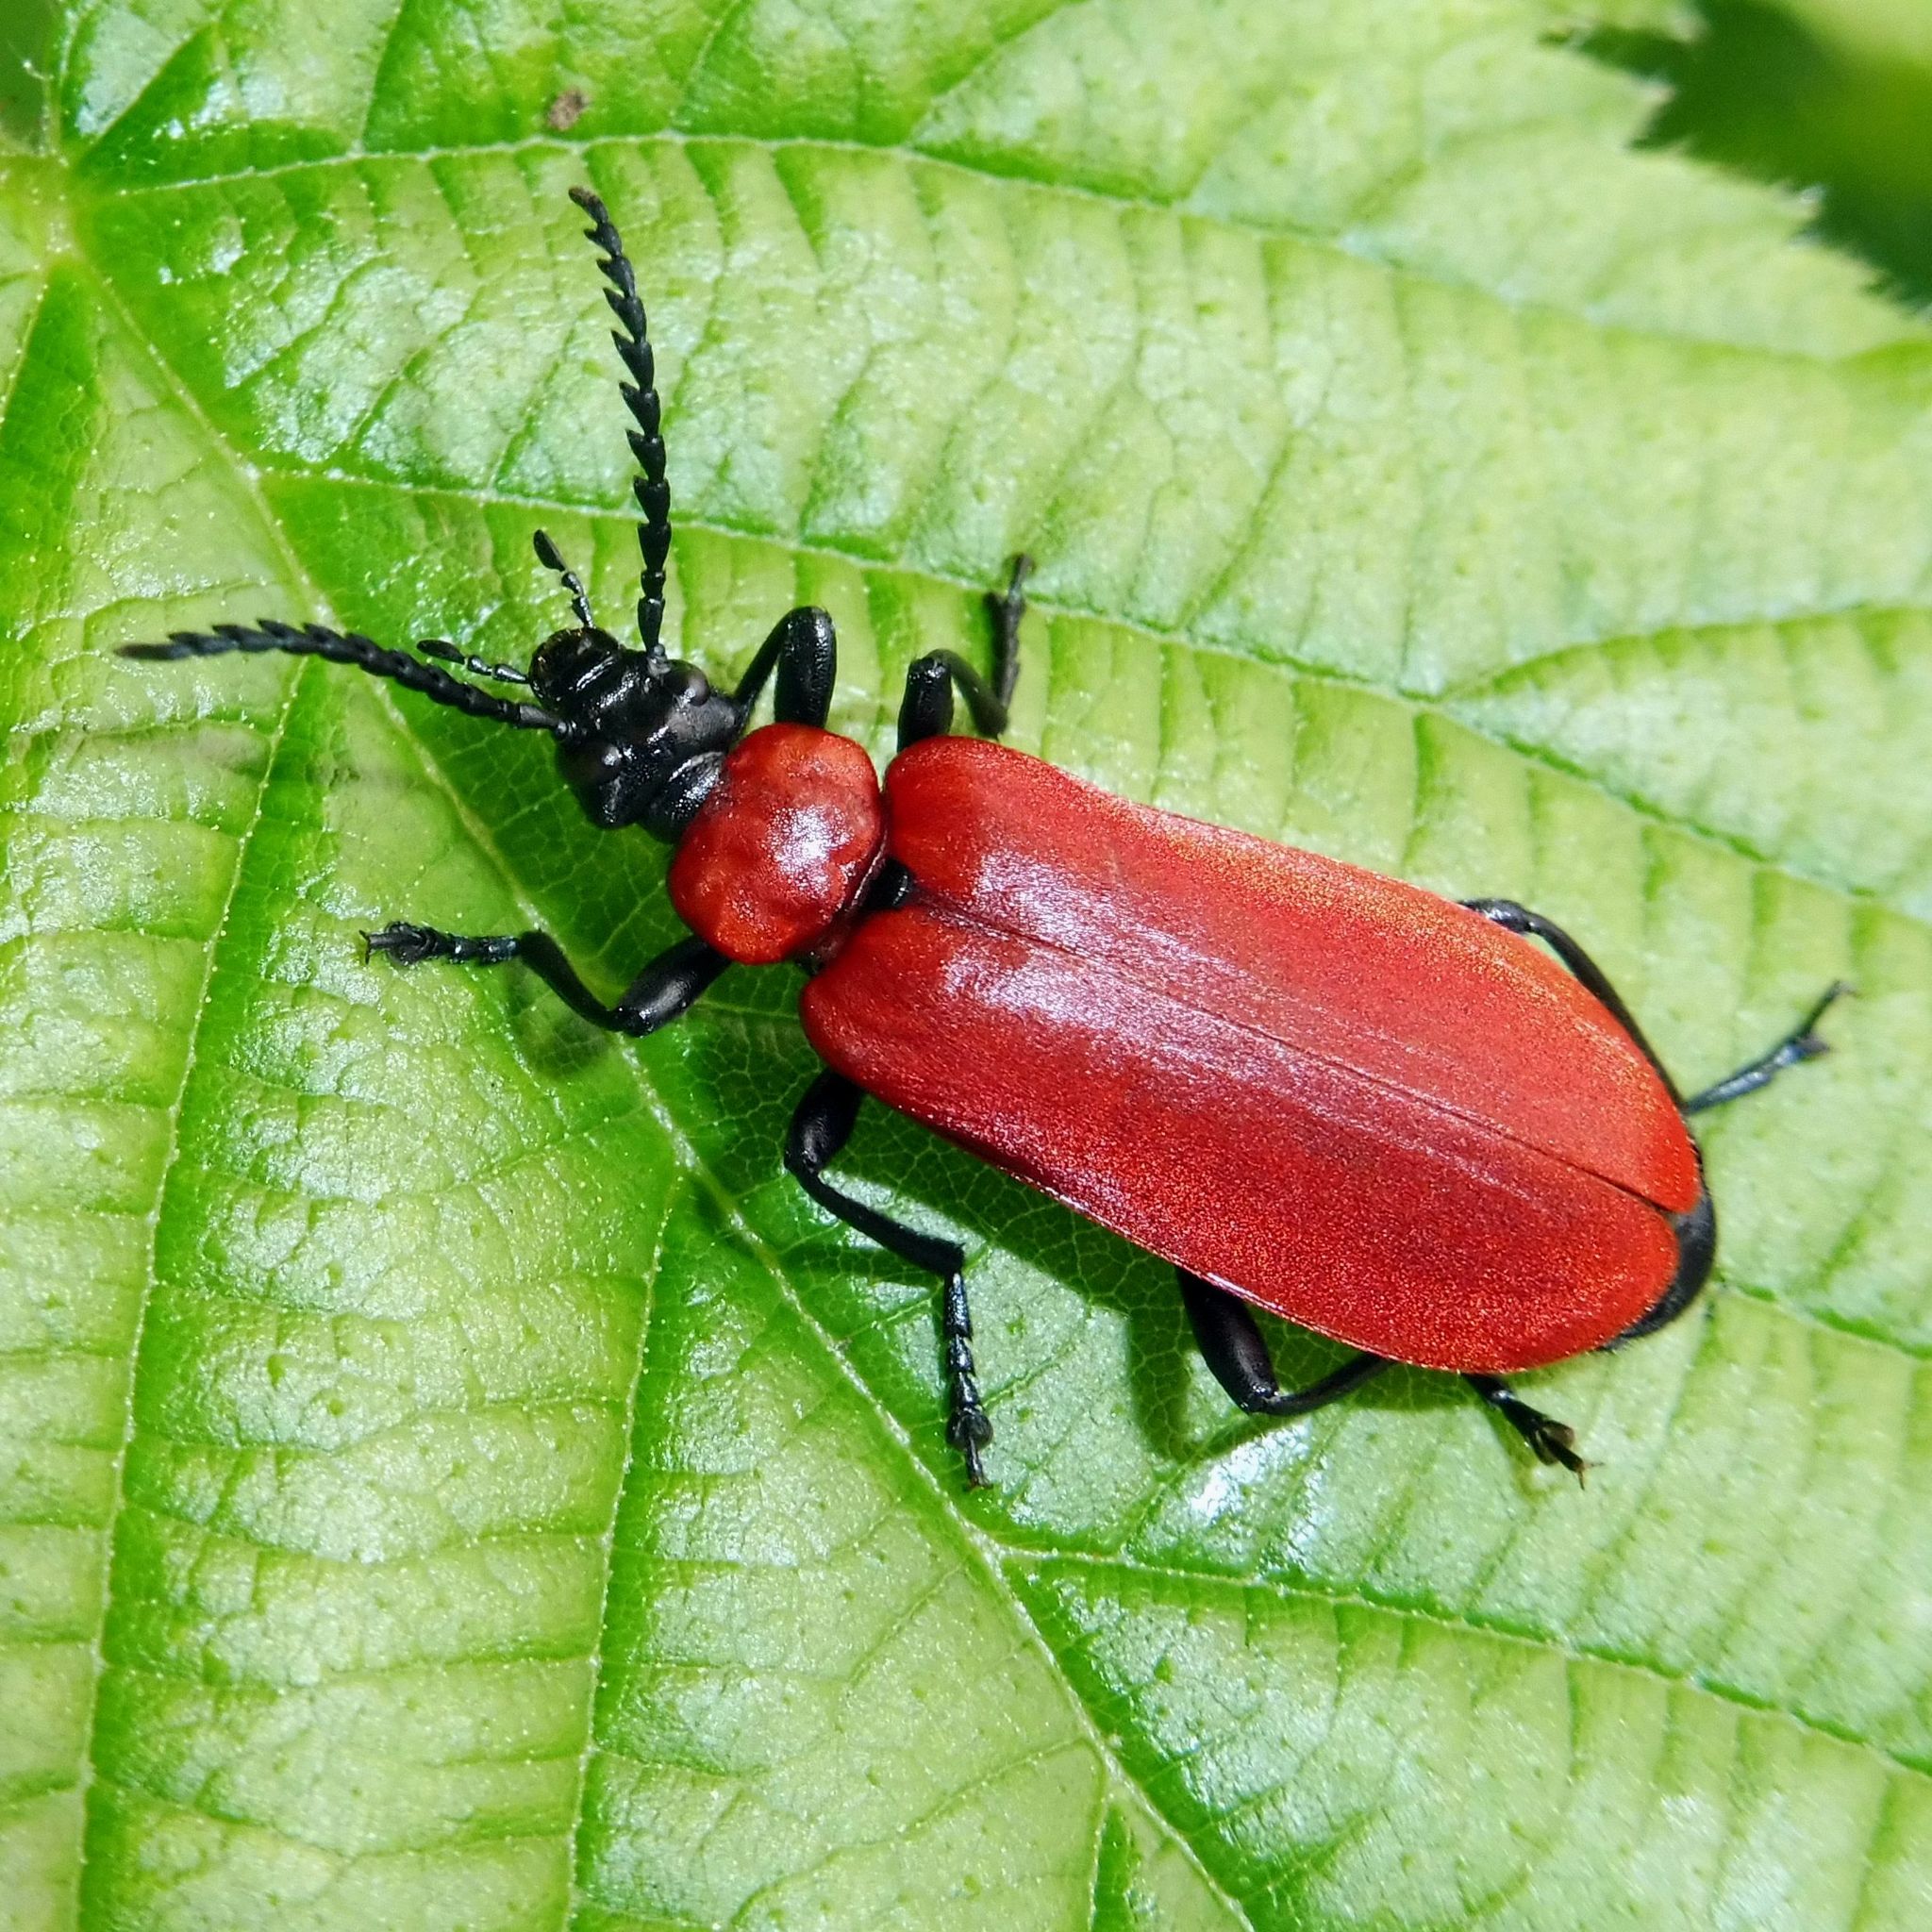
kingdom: Animalia
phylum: Arthropoda
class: Insecta
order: Coleoptera
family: Pyrochroidae
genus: Pyrochroa
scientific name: Pyrochroa coccinea
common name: Black-headed cardinal beetle
